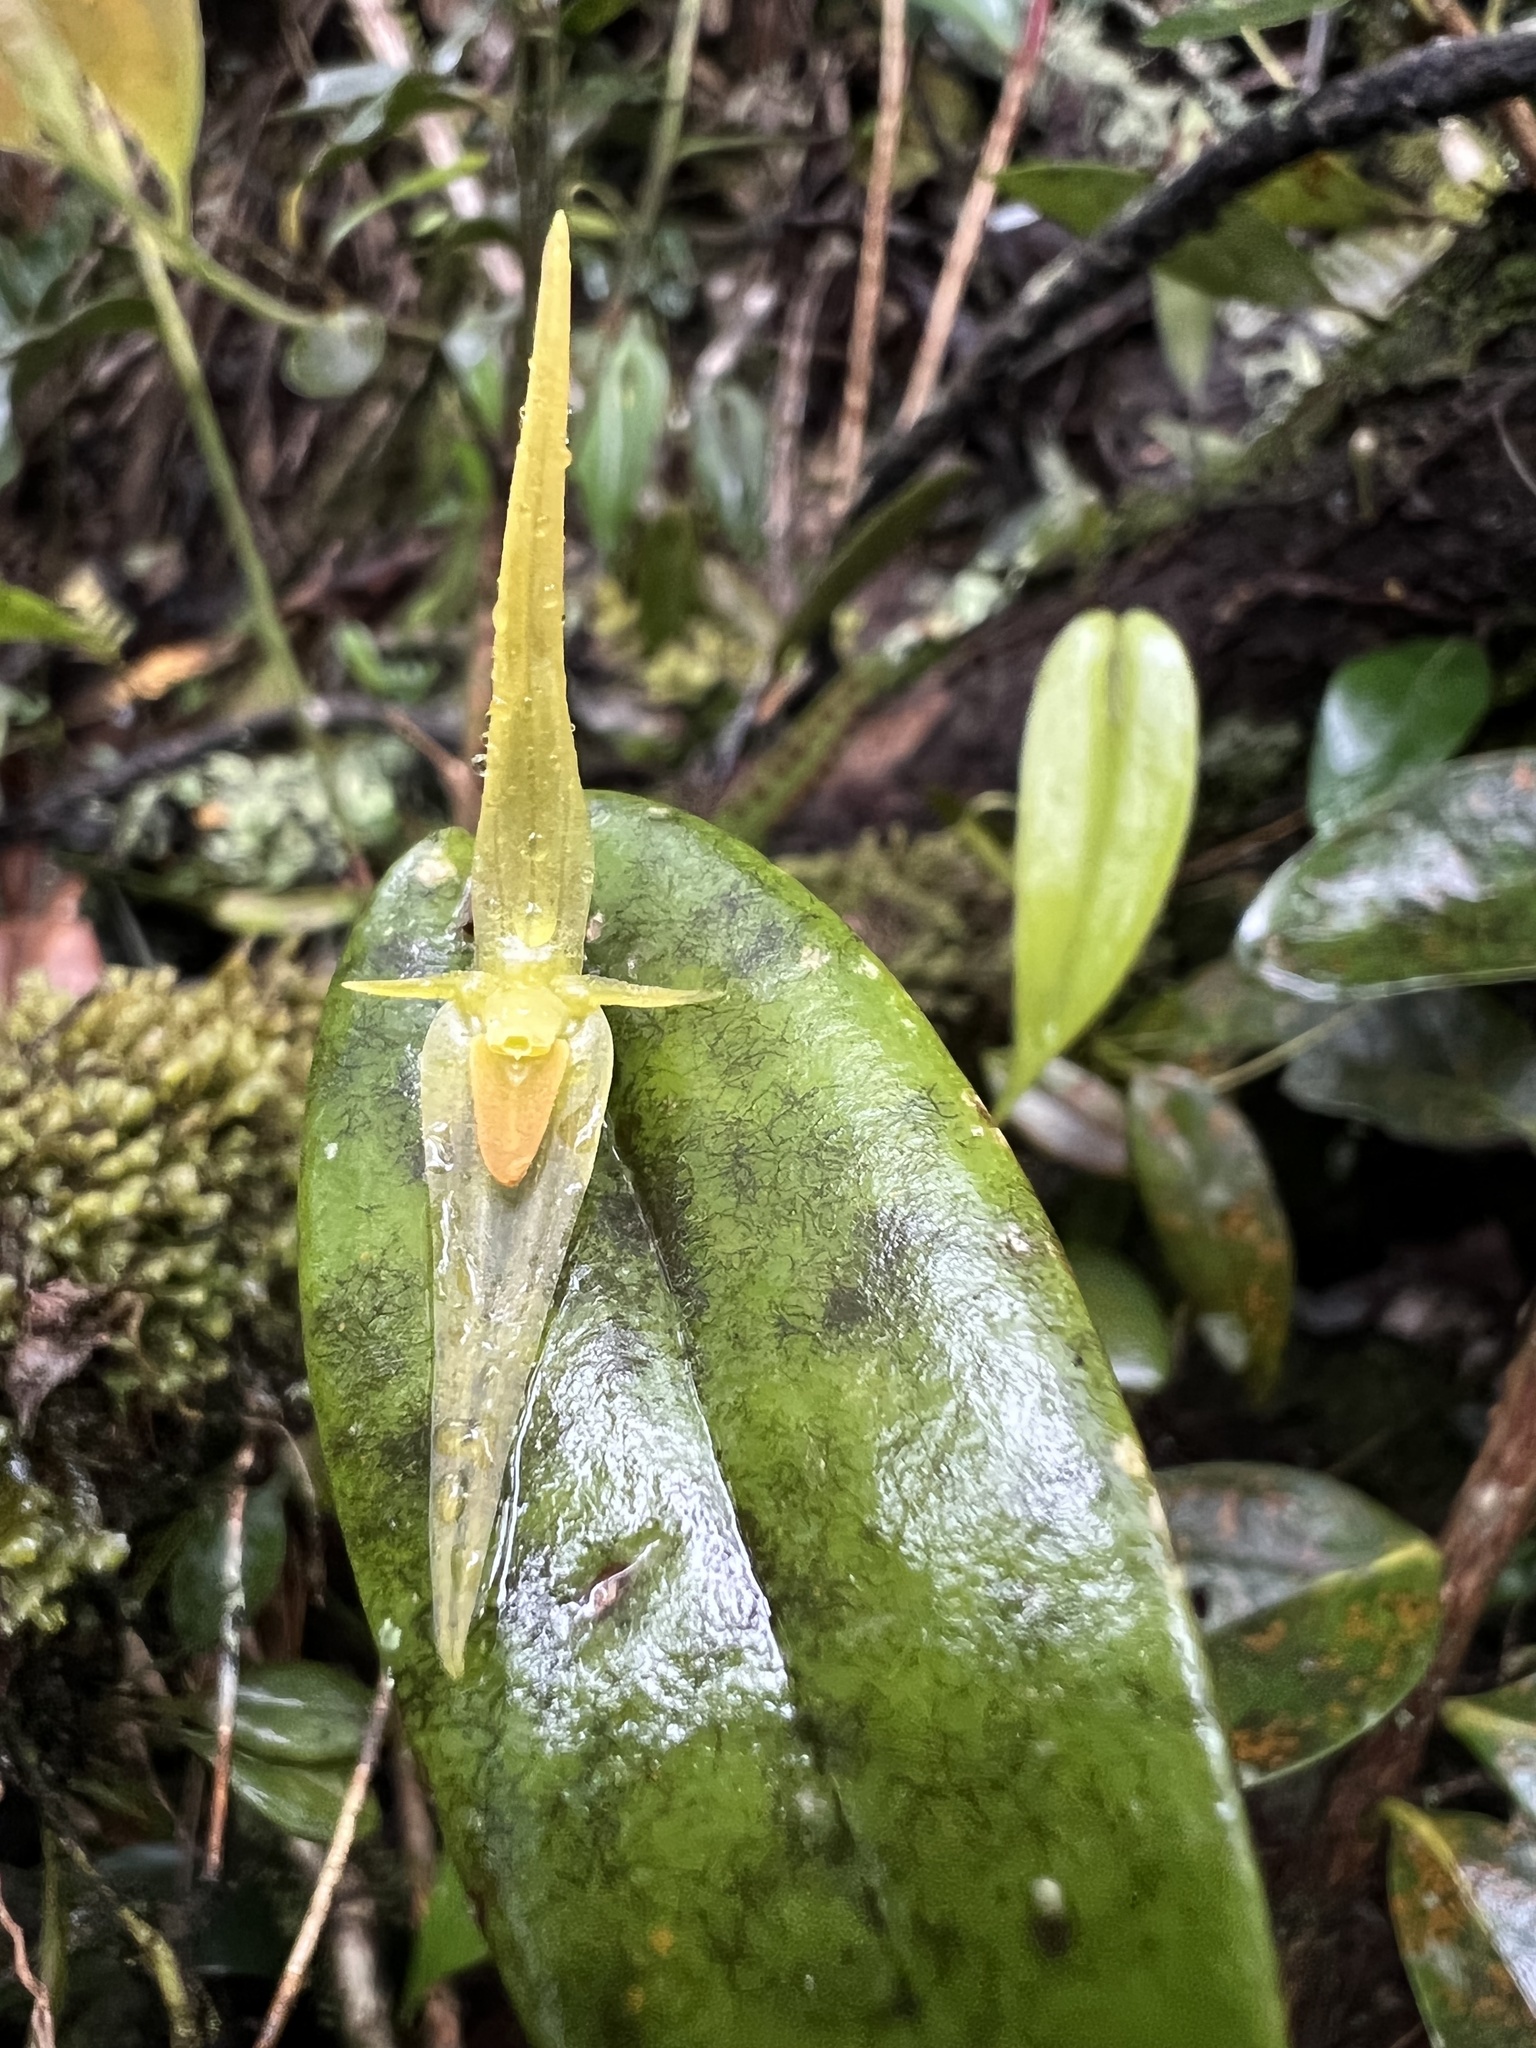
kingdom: Plantae
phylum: Tracheophyta
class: Liliopsida
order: Asparagales
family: Orchidaceae
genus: Pleurothallis
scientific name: Pleurothallis microcardia
